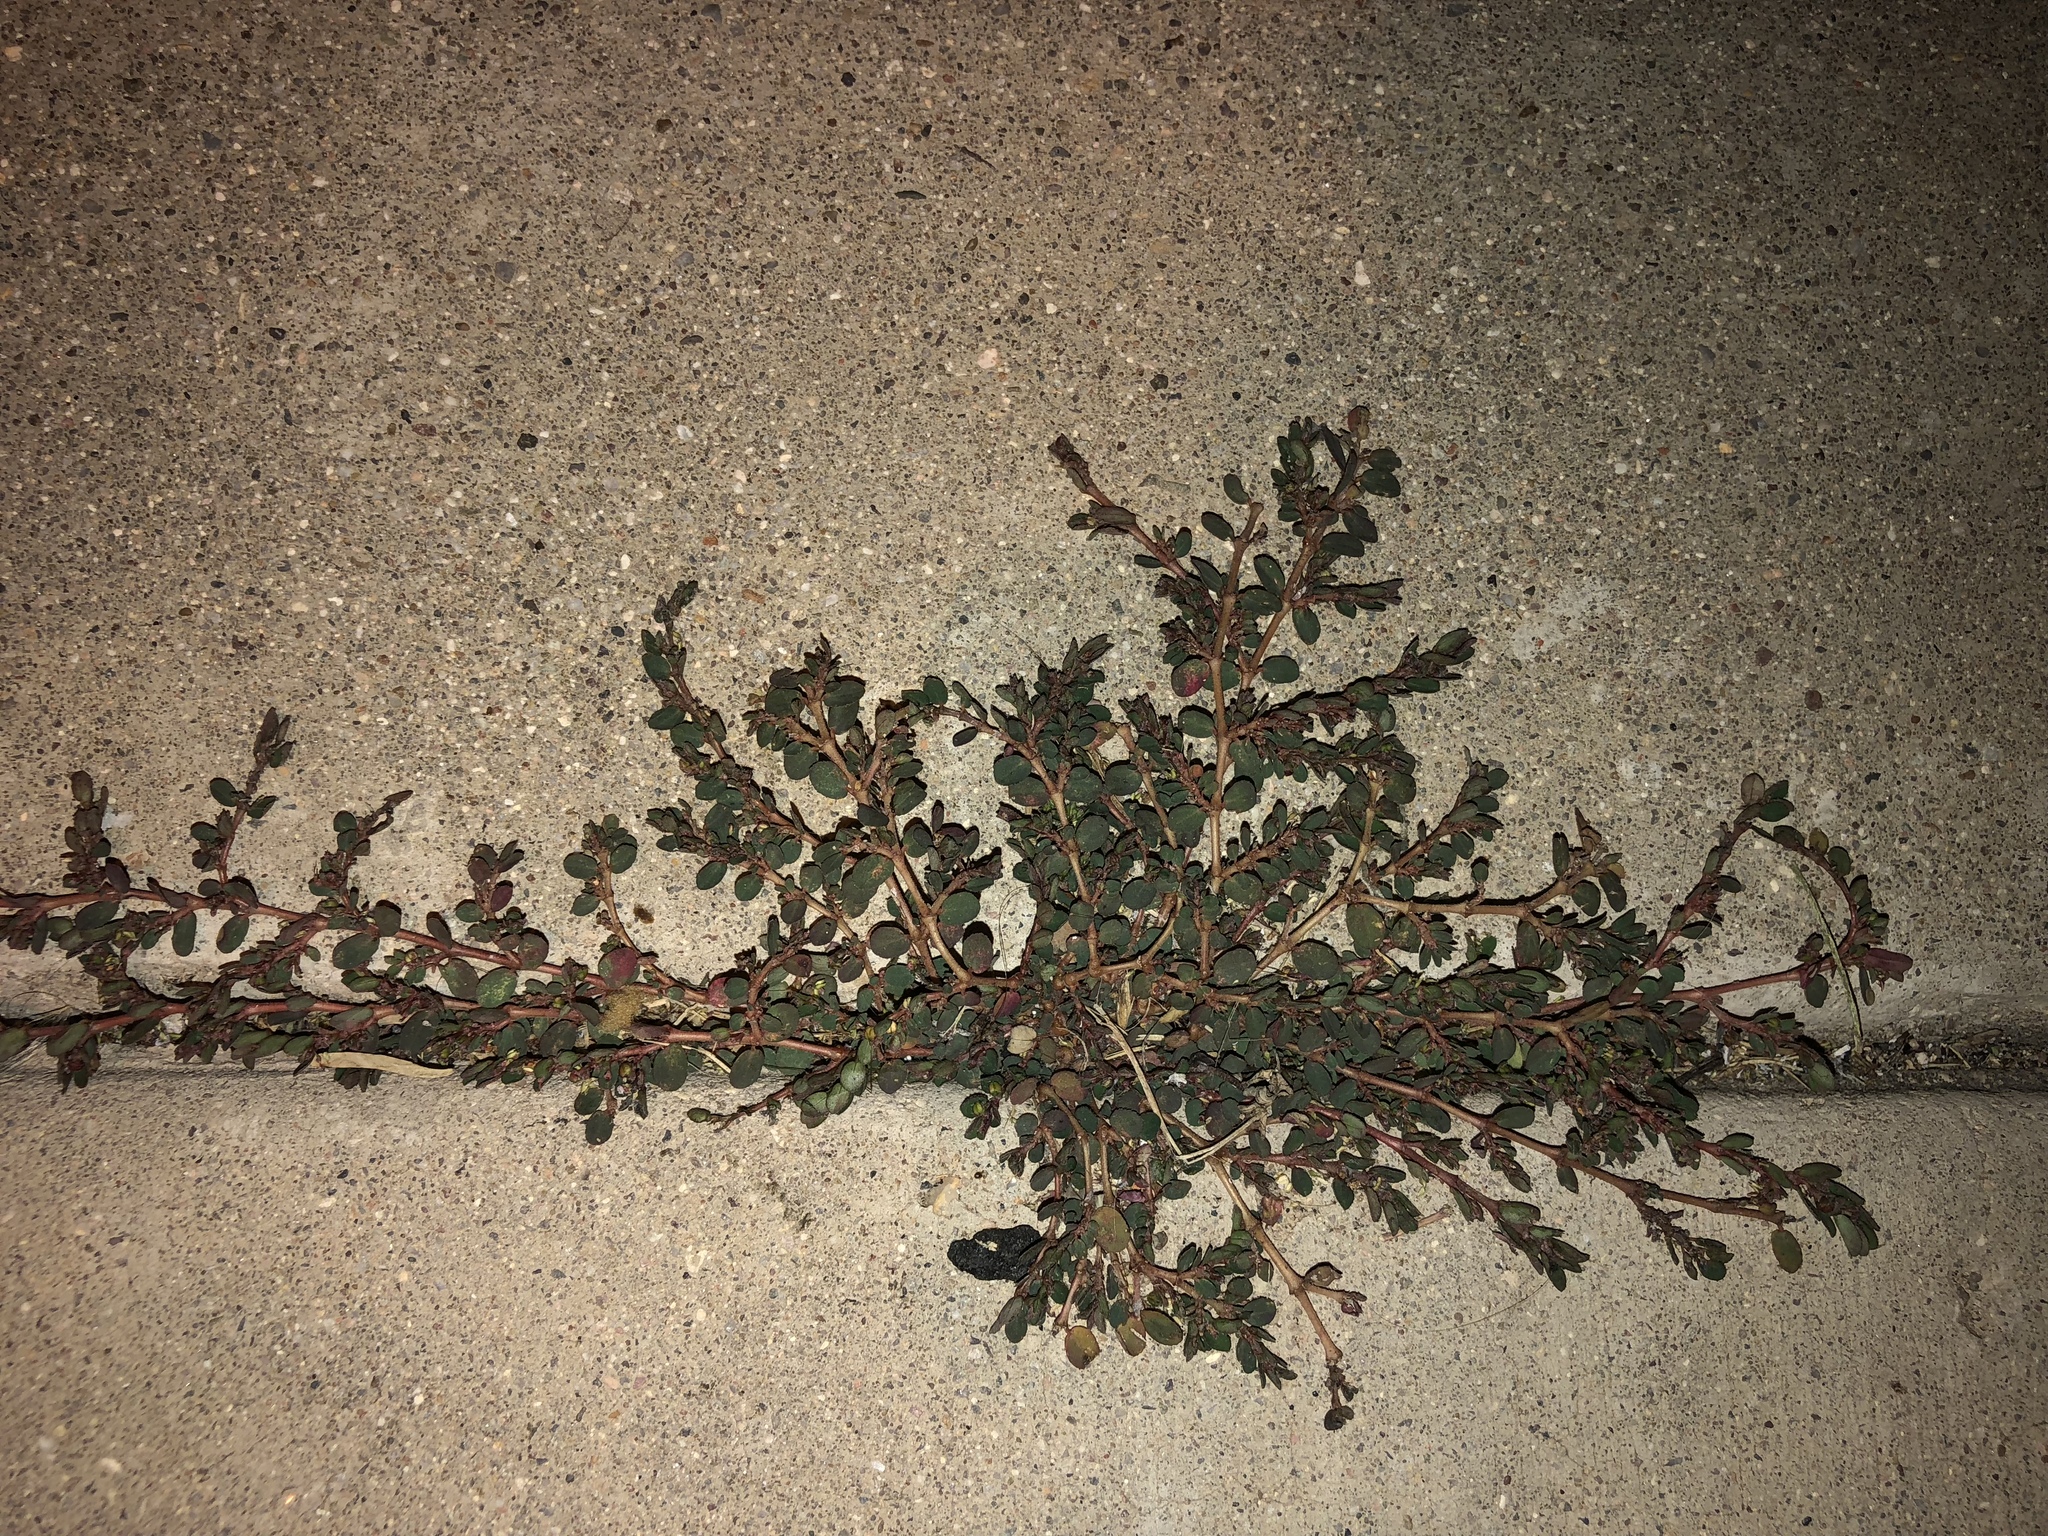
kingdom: Plantae
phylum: Tracheophyta
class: Magnoliopsida
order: Malpighiales
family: Euphorbiaceae
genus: Euphorbia
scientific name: Euphorbia prostrata
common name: Prostrate sandmat
